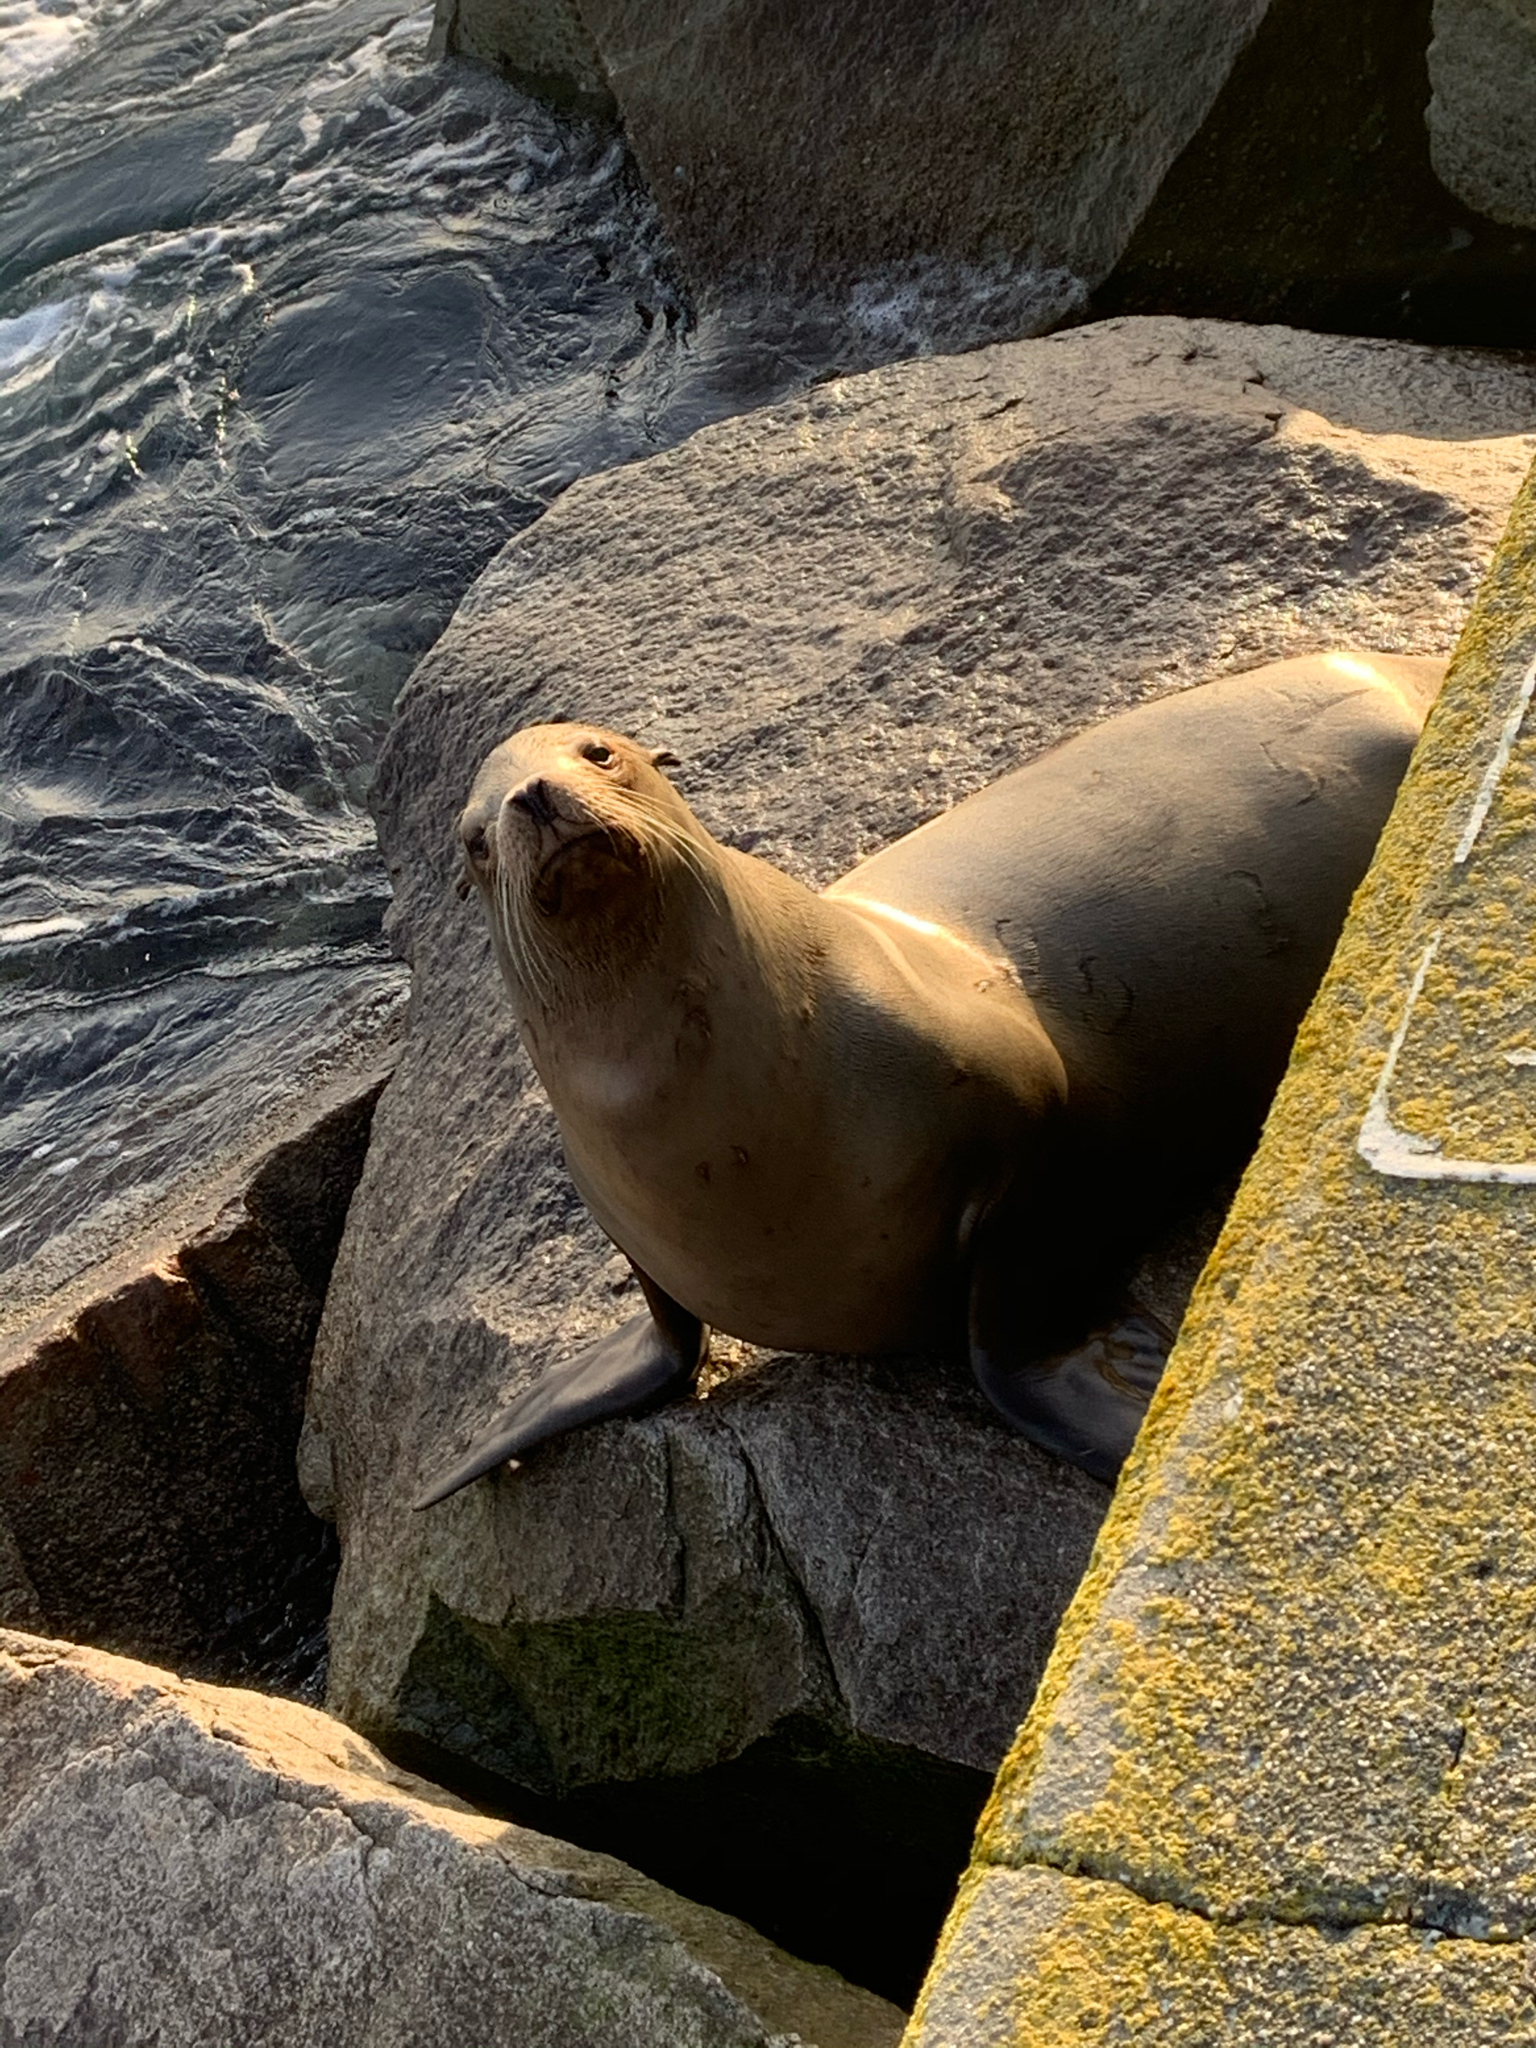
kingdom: Animalia
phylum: Chordata
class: Mammalia
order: Carnivora
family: Otariidae
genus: Zalophus
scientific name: Zalophus californianus
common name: California sea lion
